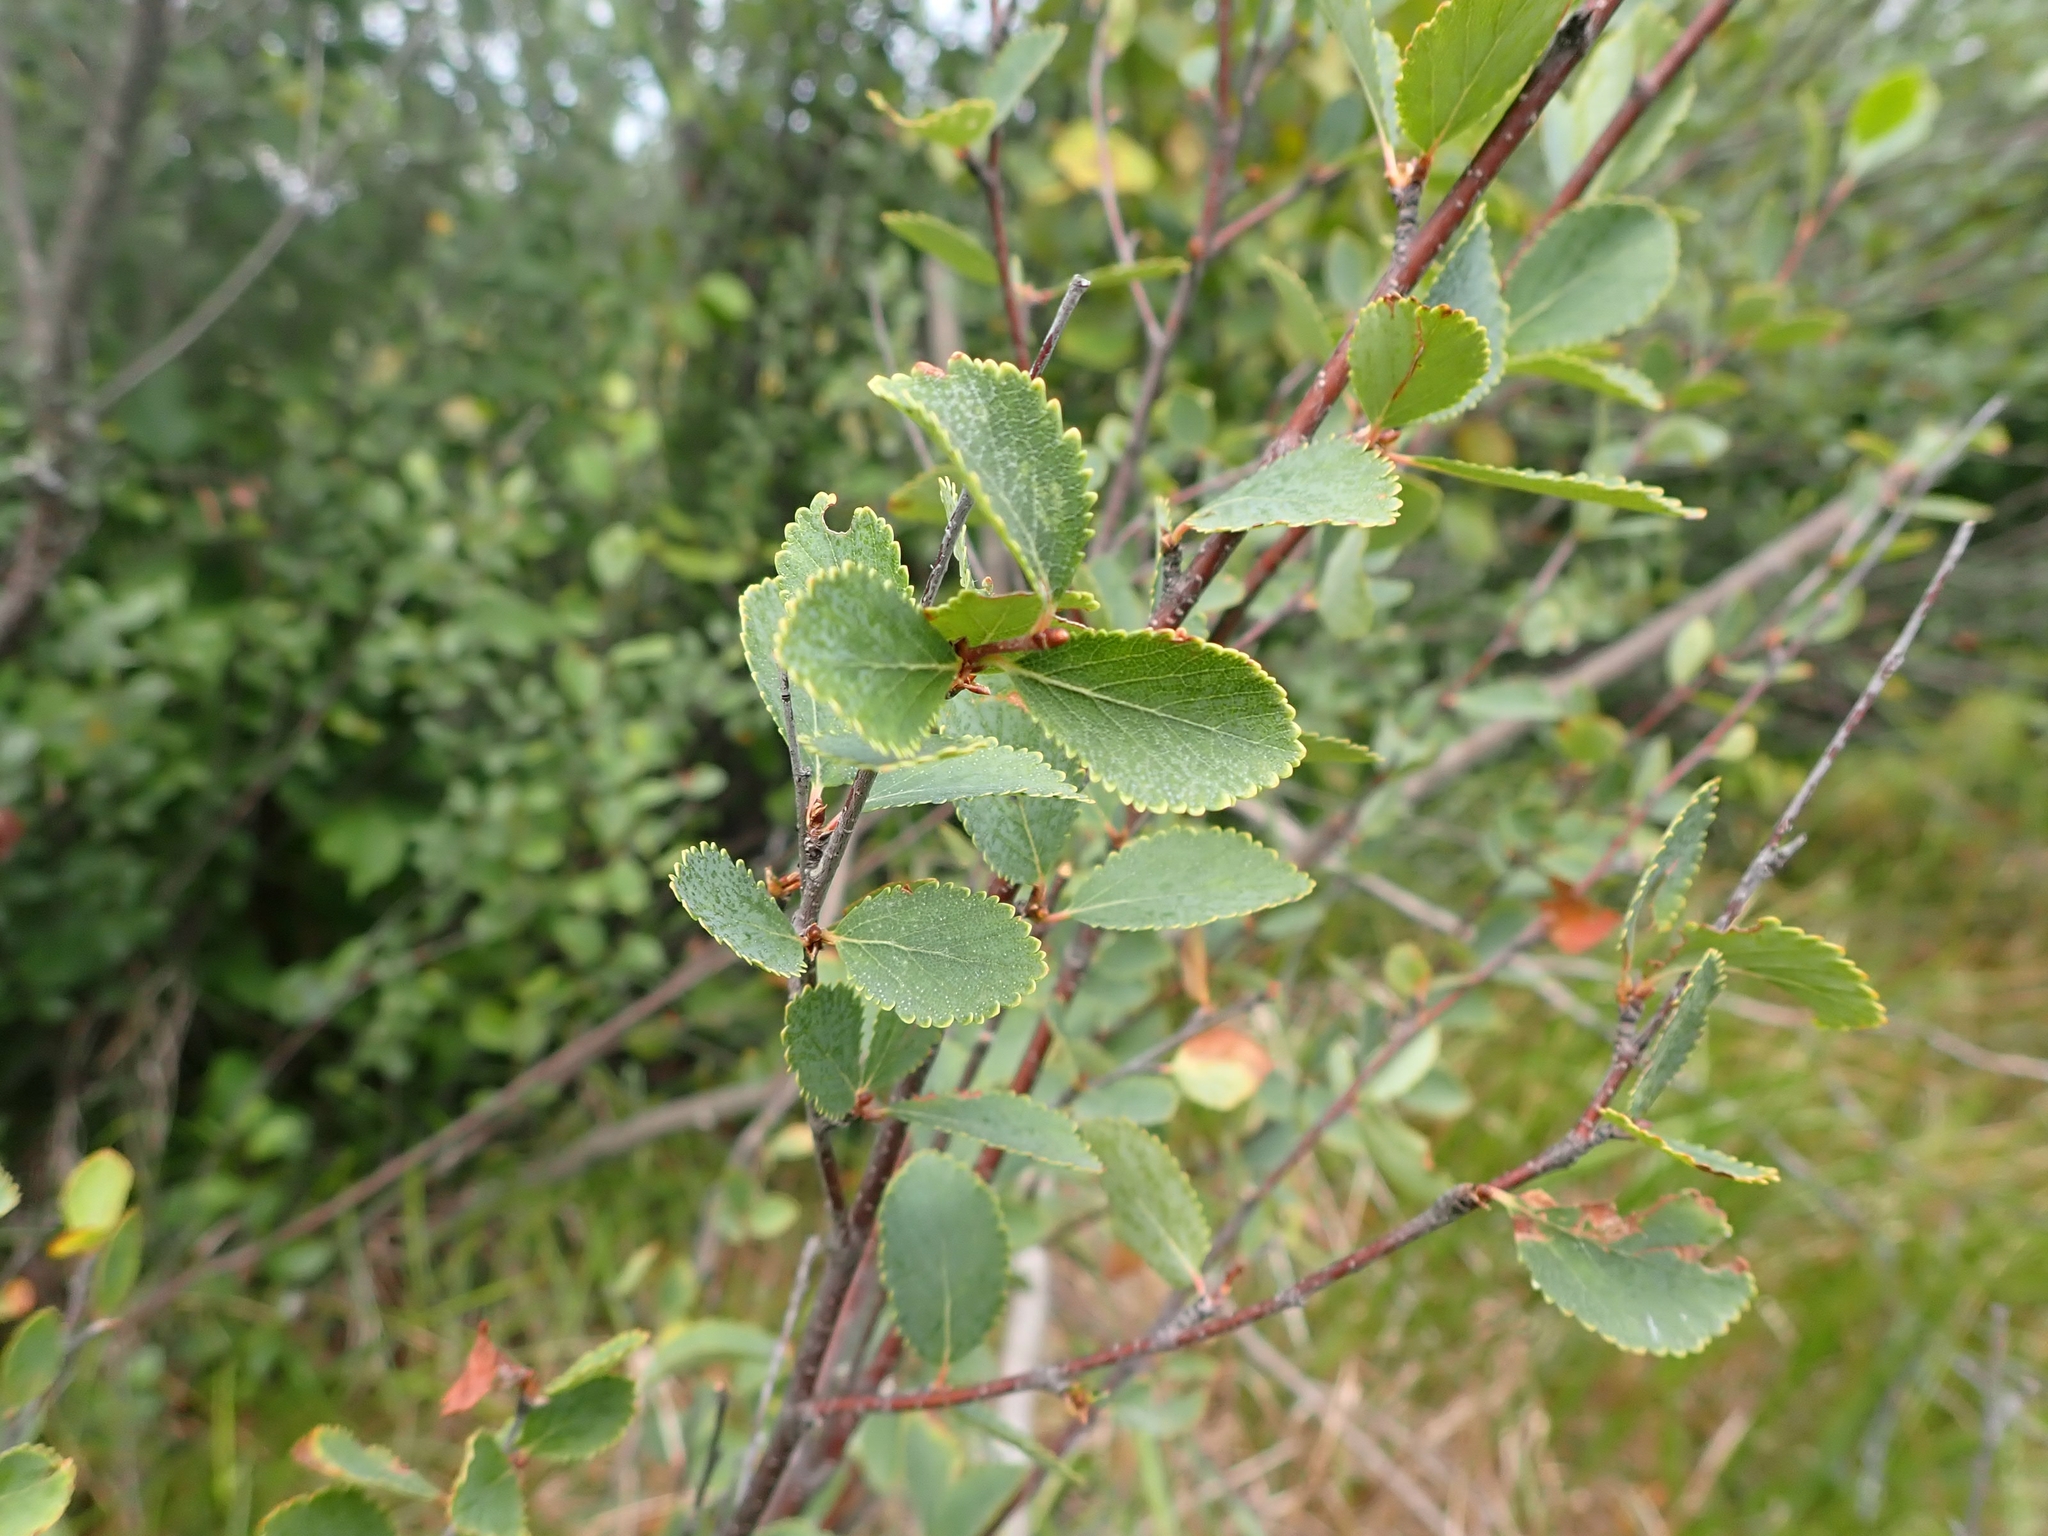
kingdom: Plantae
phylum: Tracheophyta
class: Magnoliopsida
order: Fagales
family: Betulaceae
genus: Betula
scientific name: Betula pumila
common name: Bog birch
